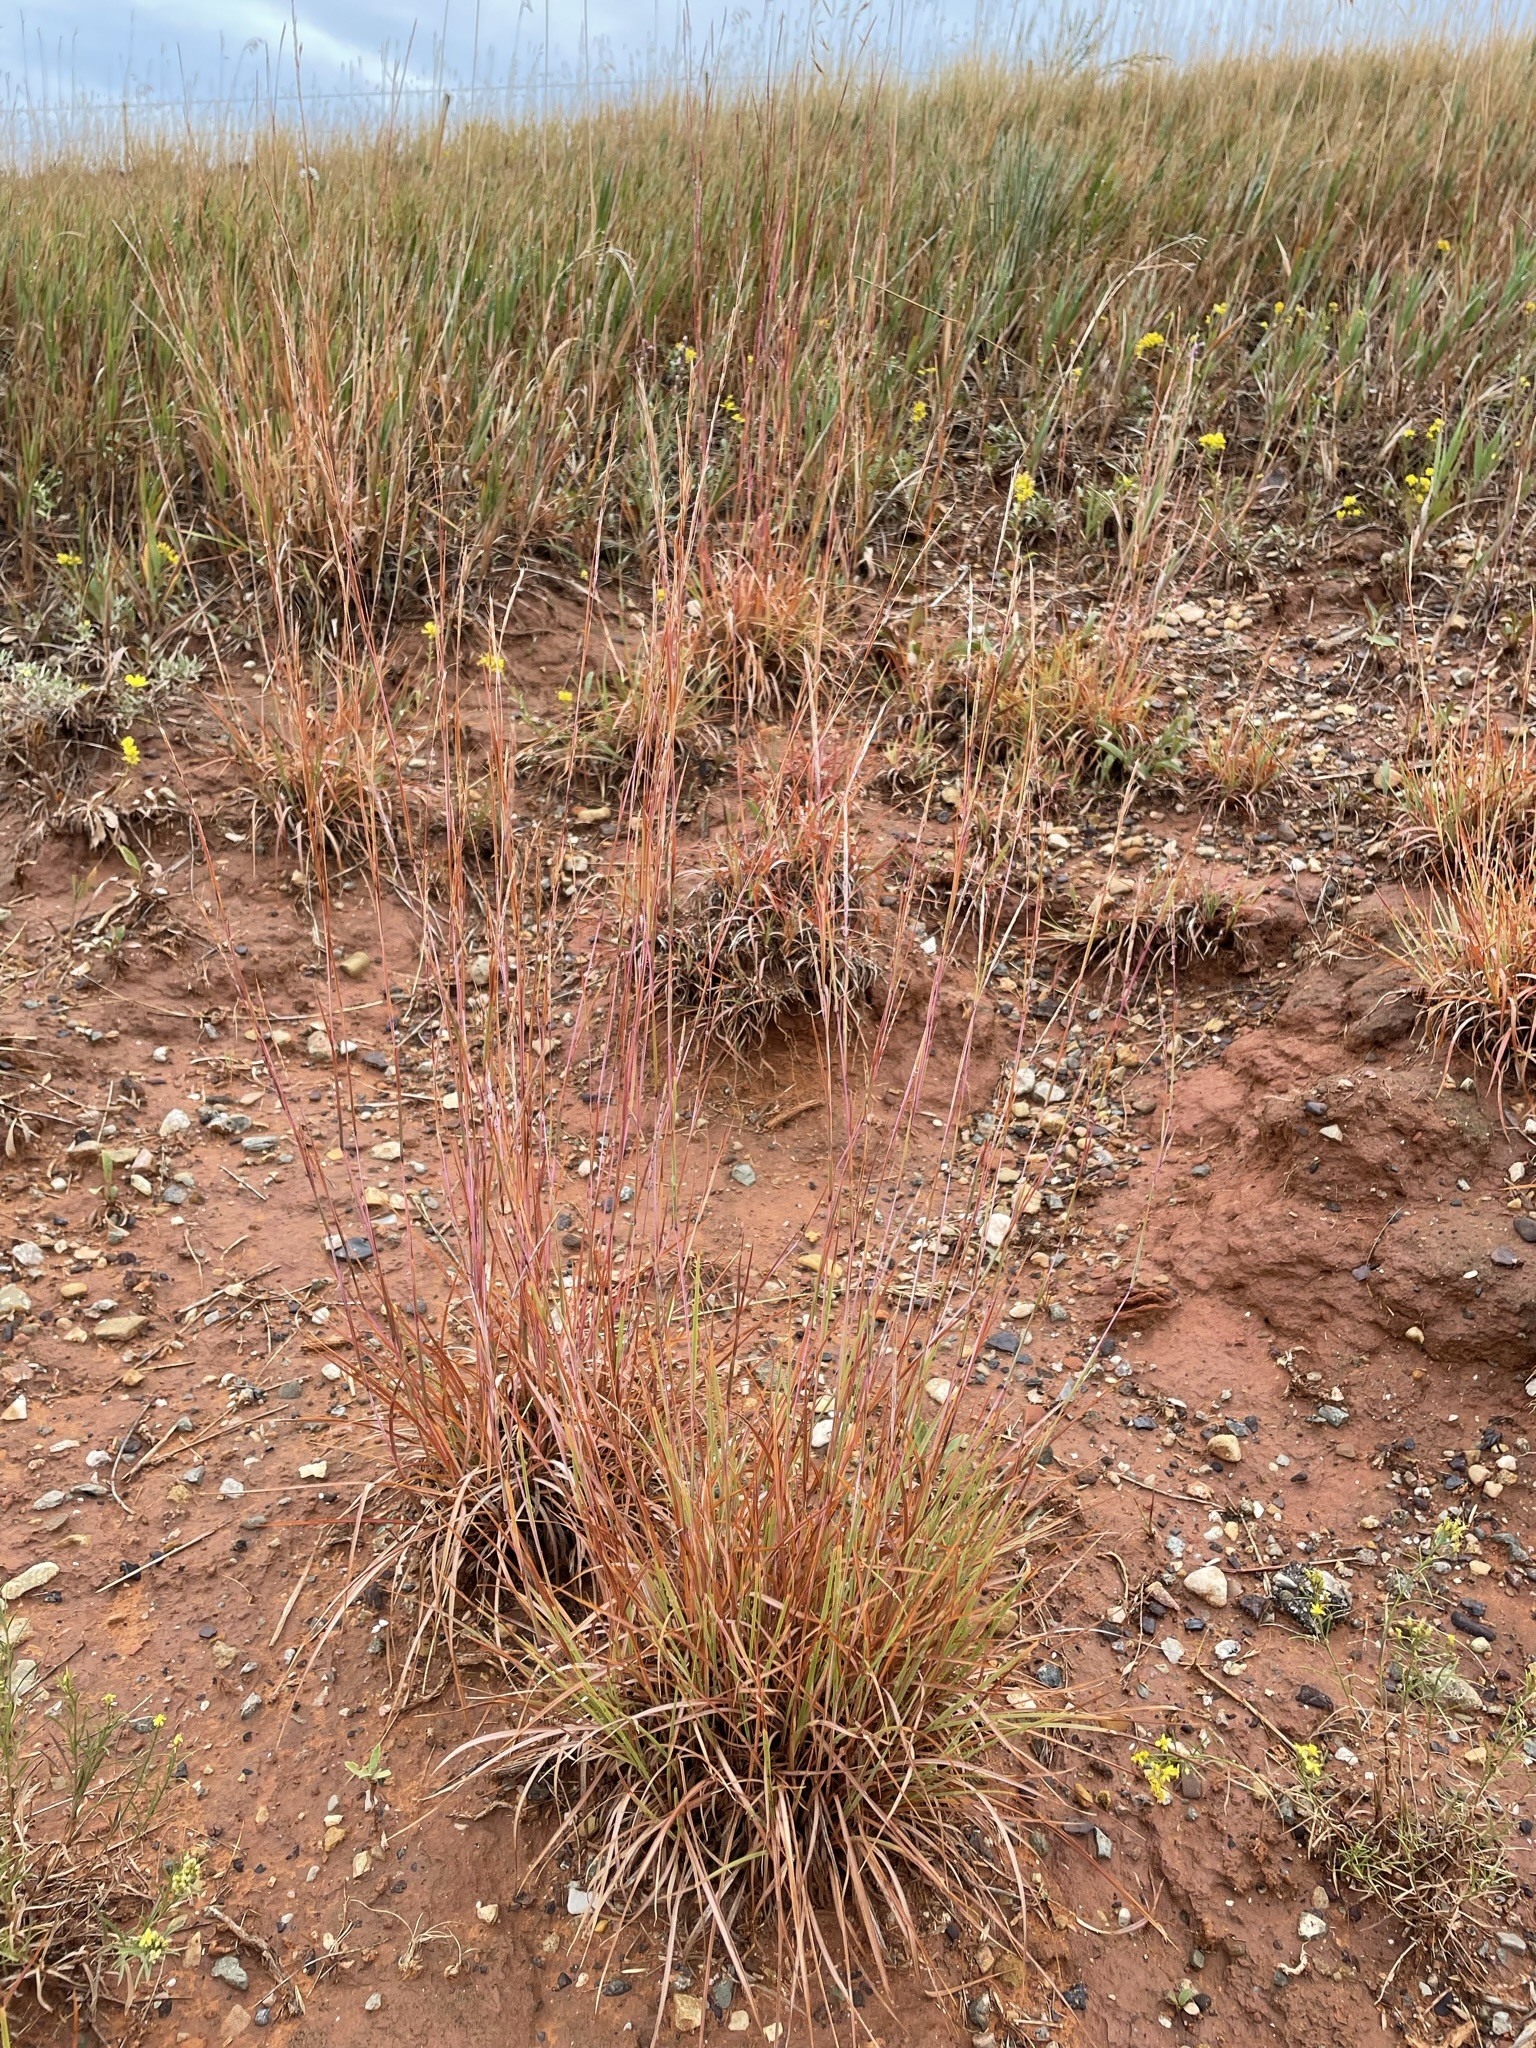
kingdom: Plantae
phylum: Tracheophyta
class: Liliopsida
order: Poales
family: Poaceae
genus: Schizachyrium
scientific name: Schizachyrium scoparium
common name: Little bluestem
